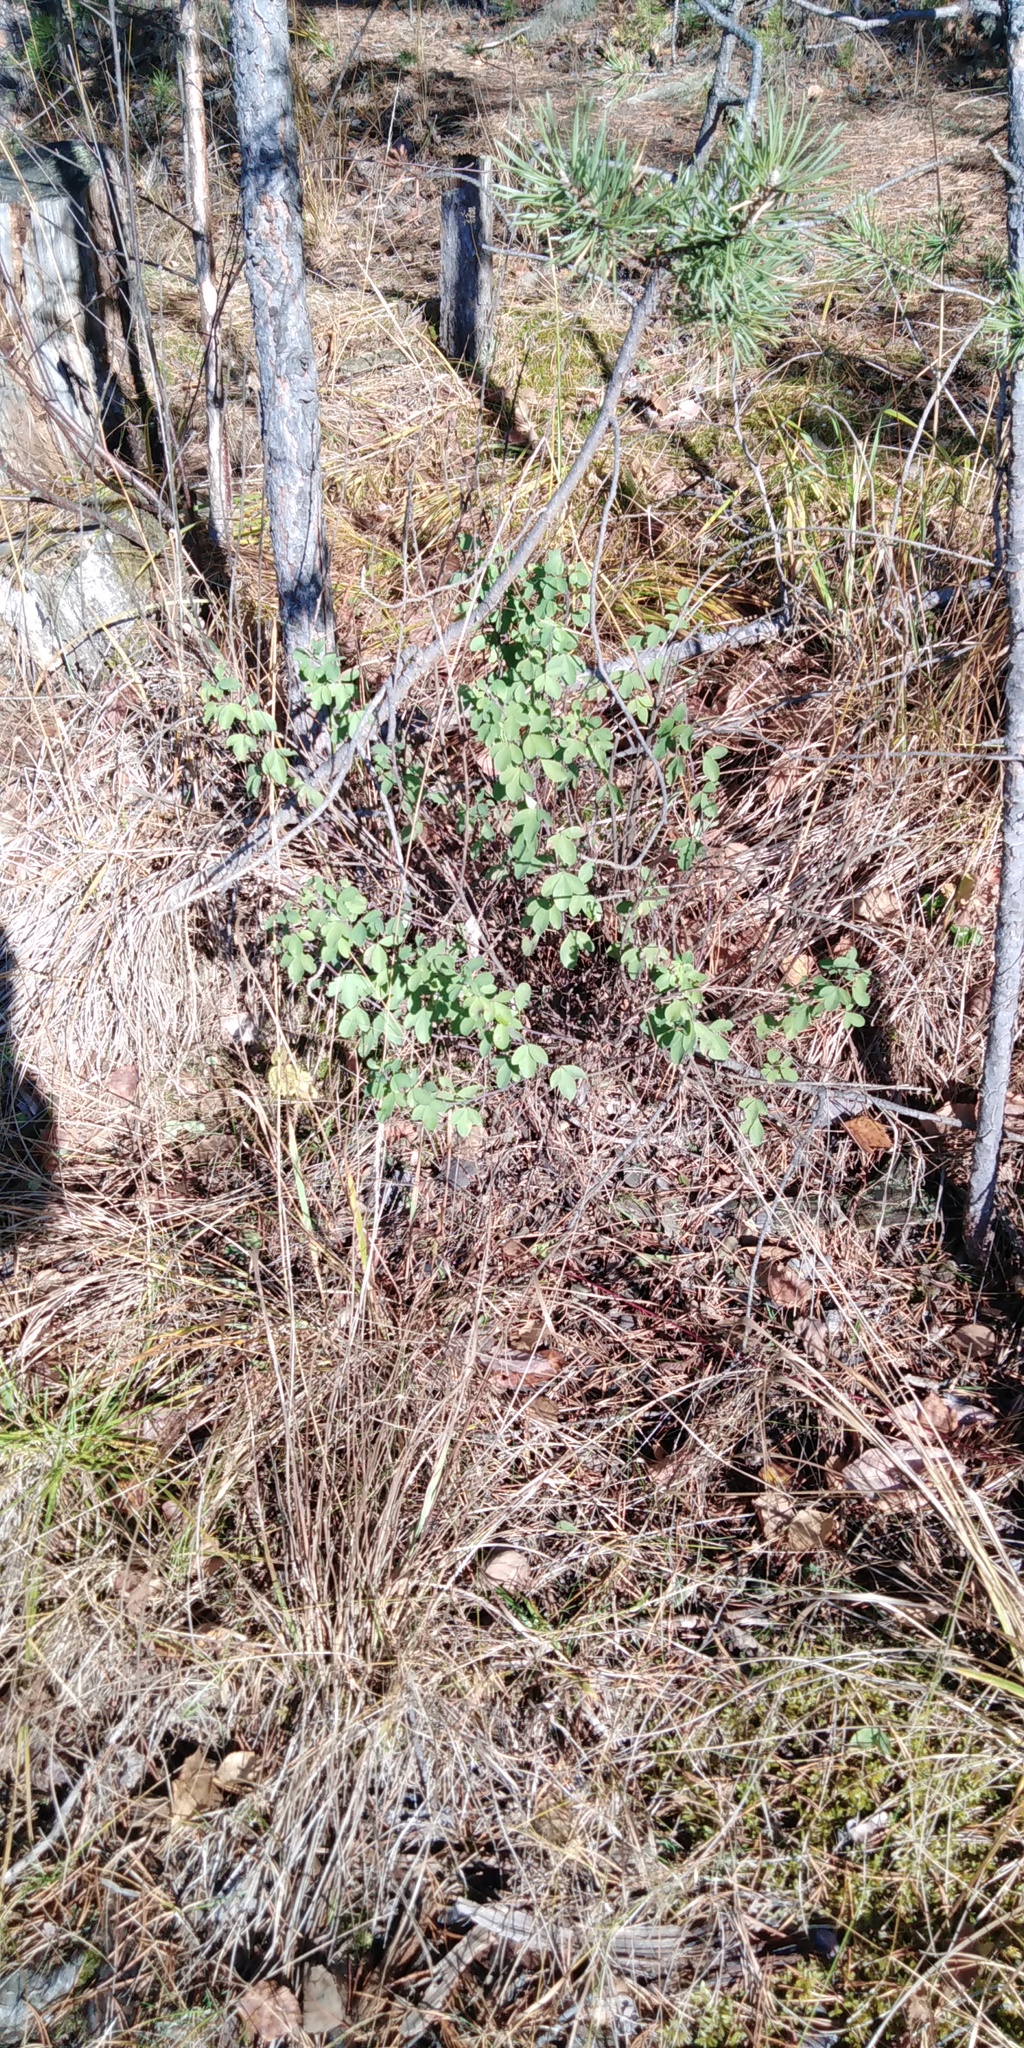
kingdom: Plantae
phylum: Tracheophyta
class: Magnoliopsida
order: Fabales
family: Fabaceae
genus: Chamaecytisus
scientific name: Chamaecytisus ruthenicus
